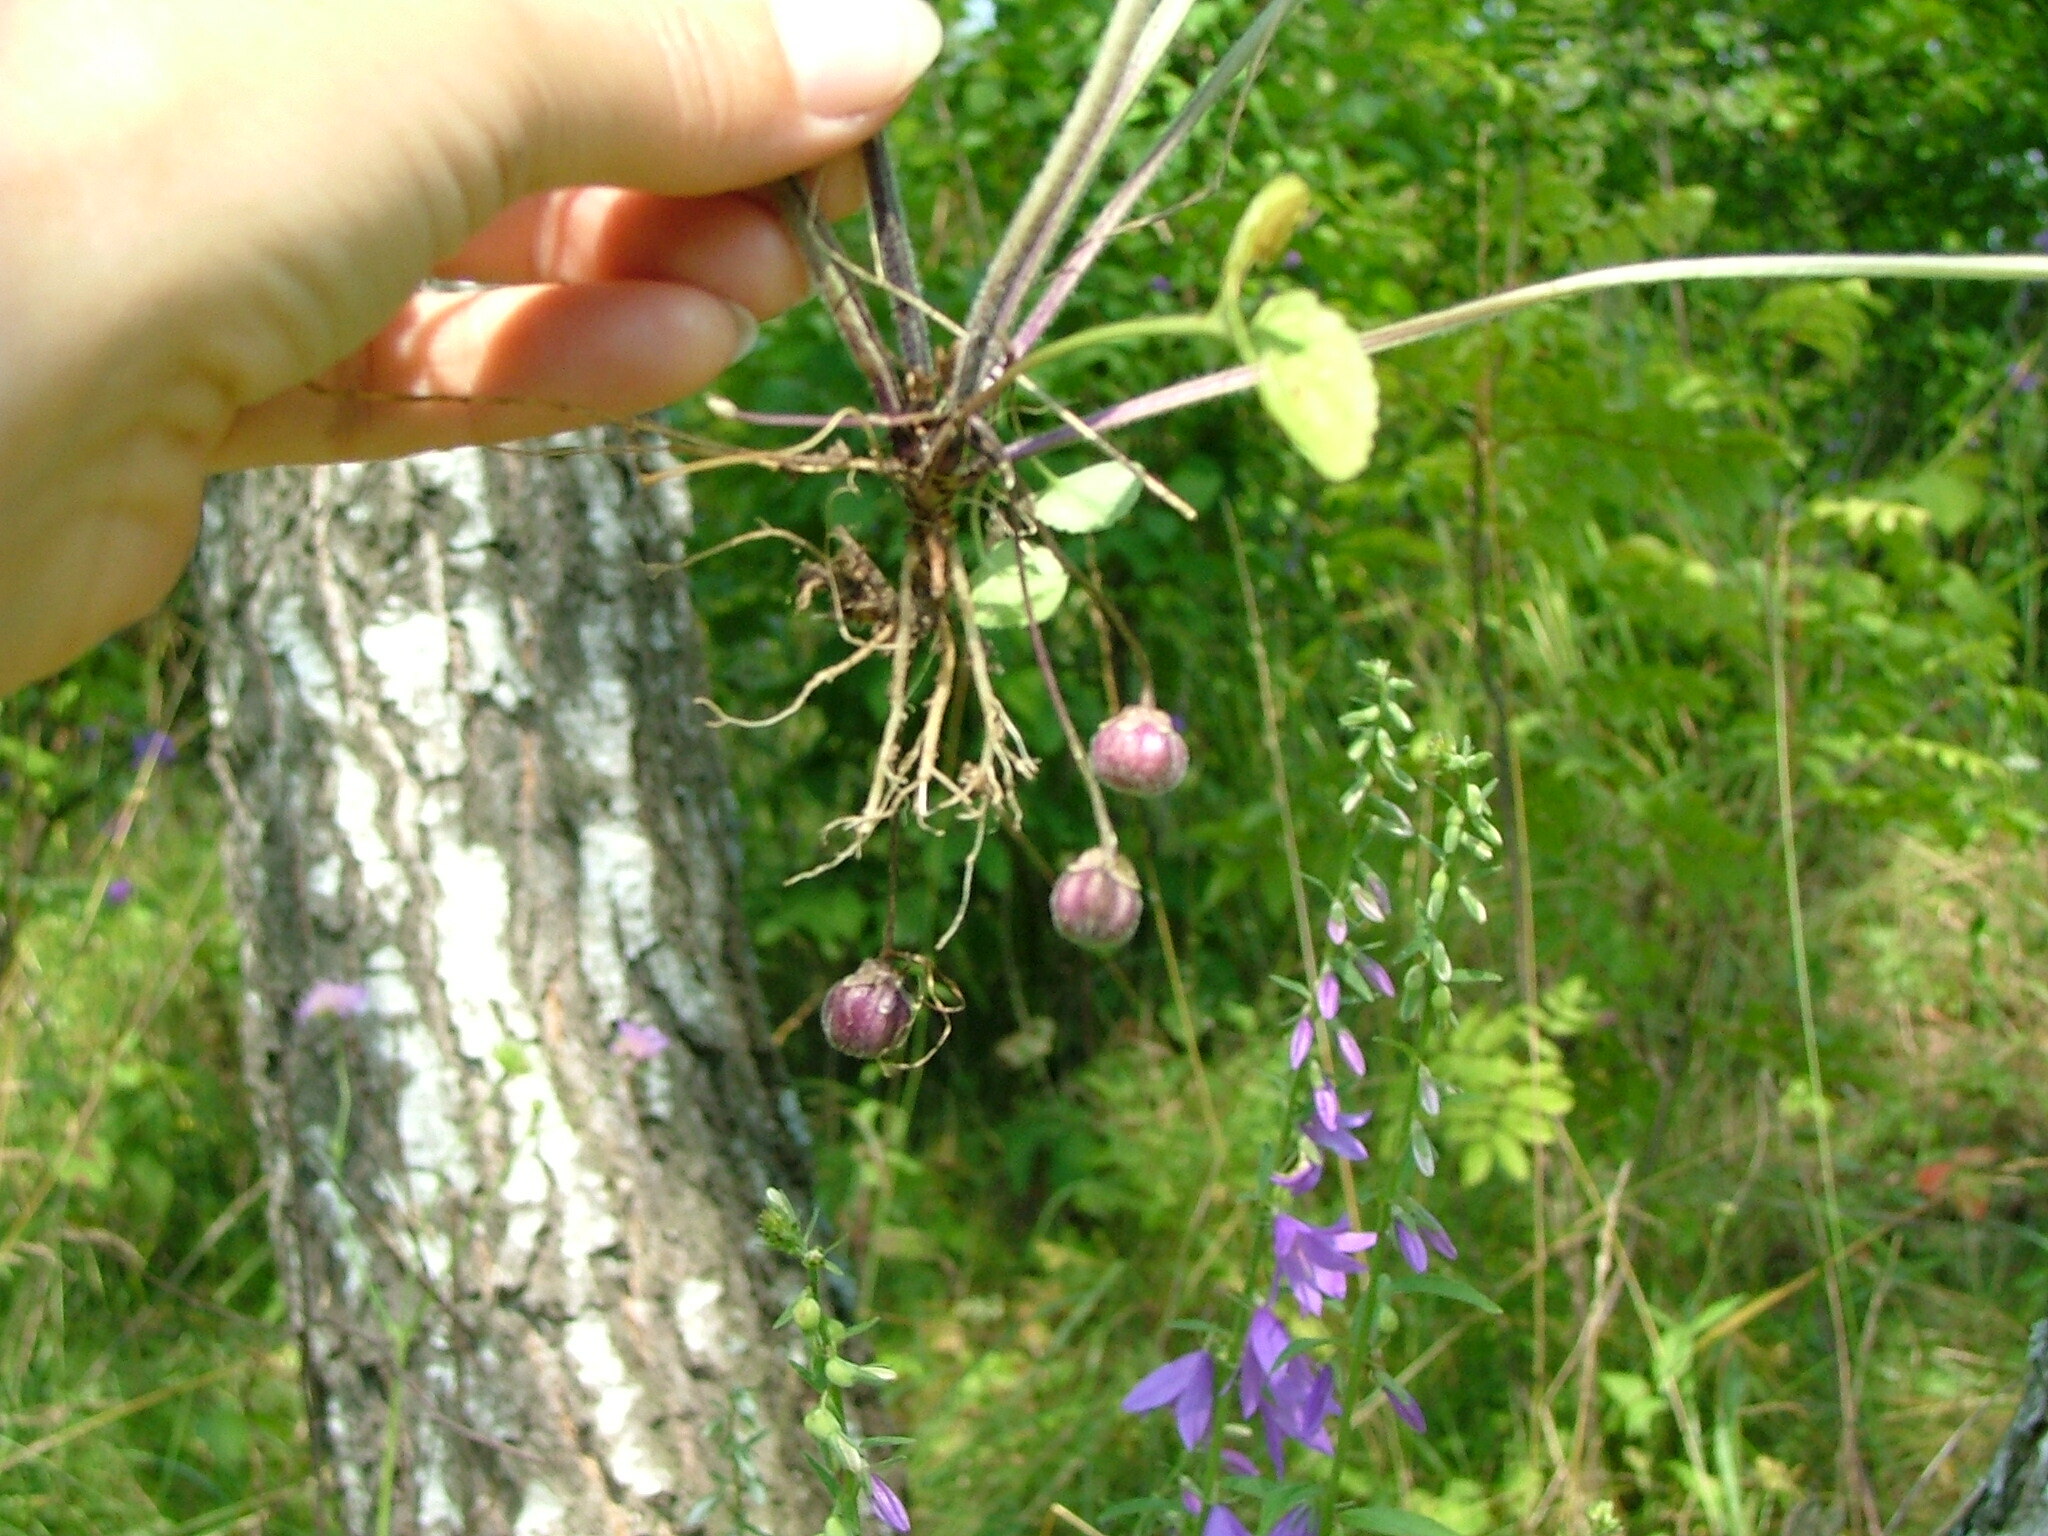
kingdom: Plantae
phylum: Tracheophyta
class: Magnoliopsida
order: Malpighiales
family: Violaceae
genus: Viola
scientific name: Viola mirabilis
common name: Wonder violet
